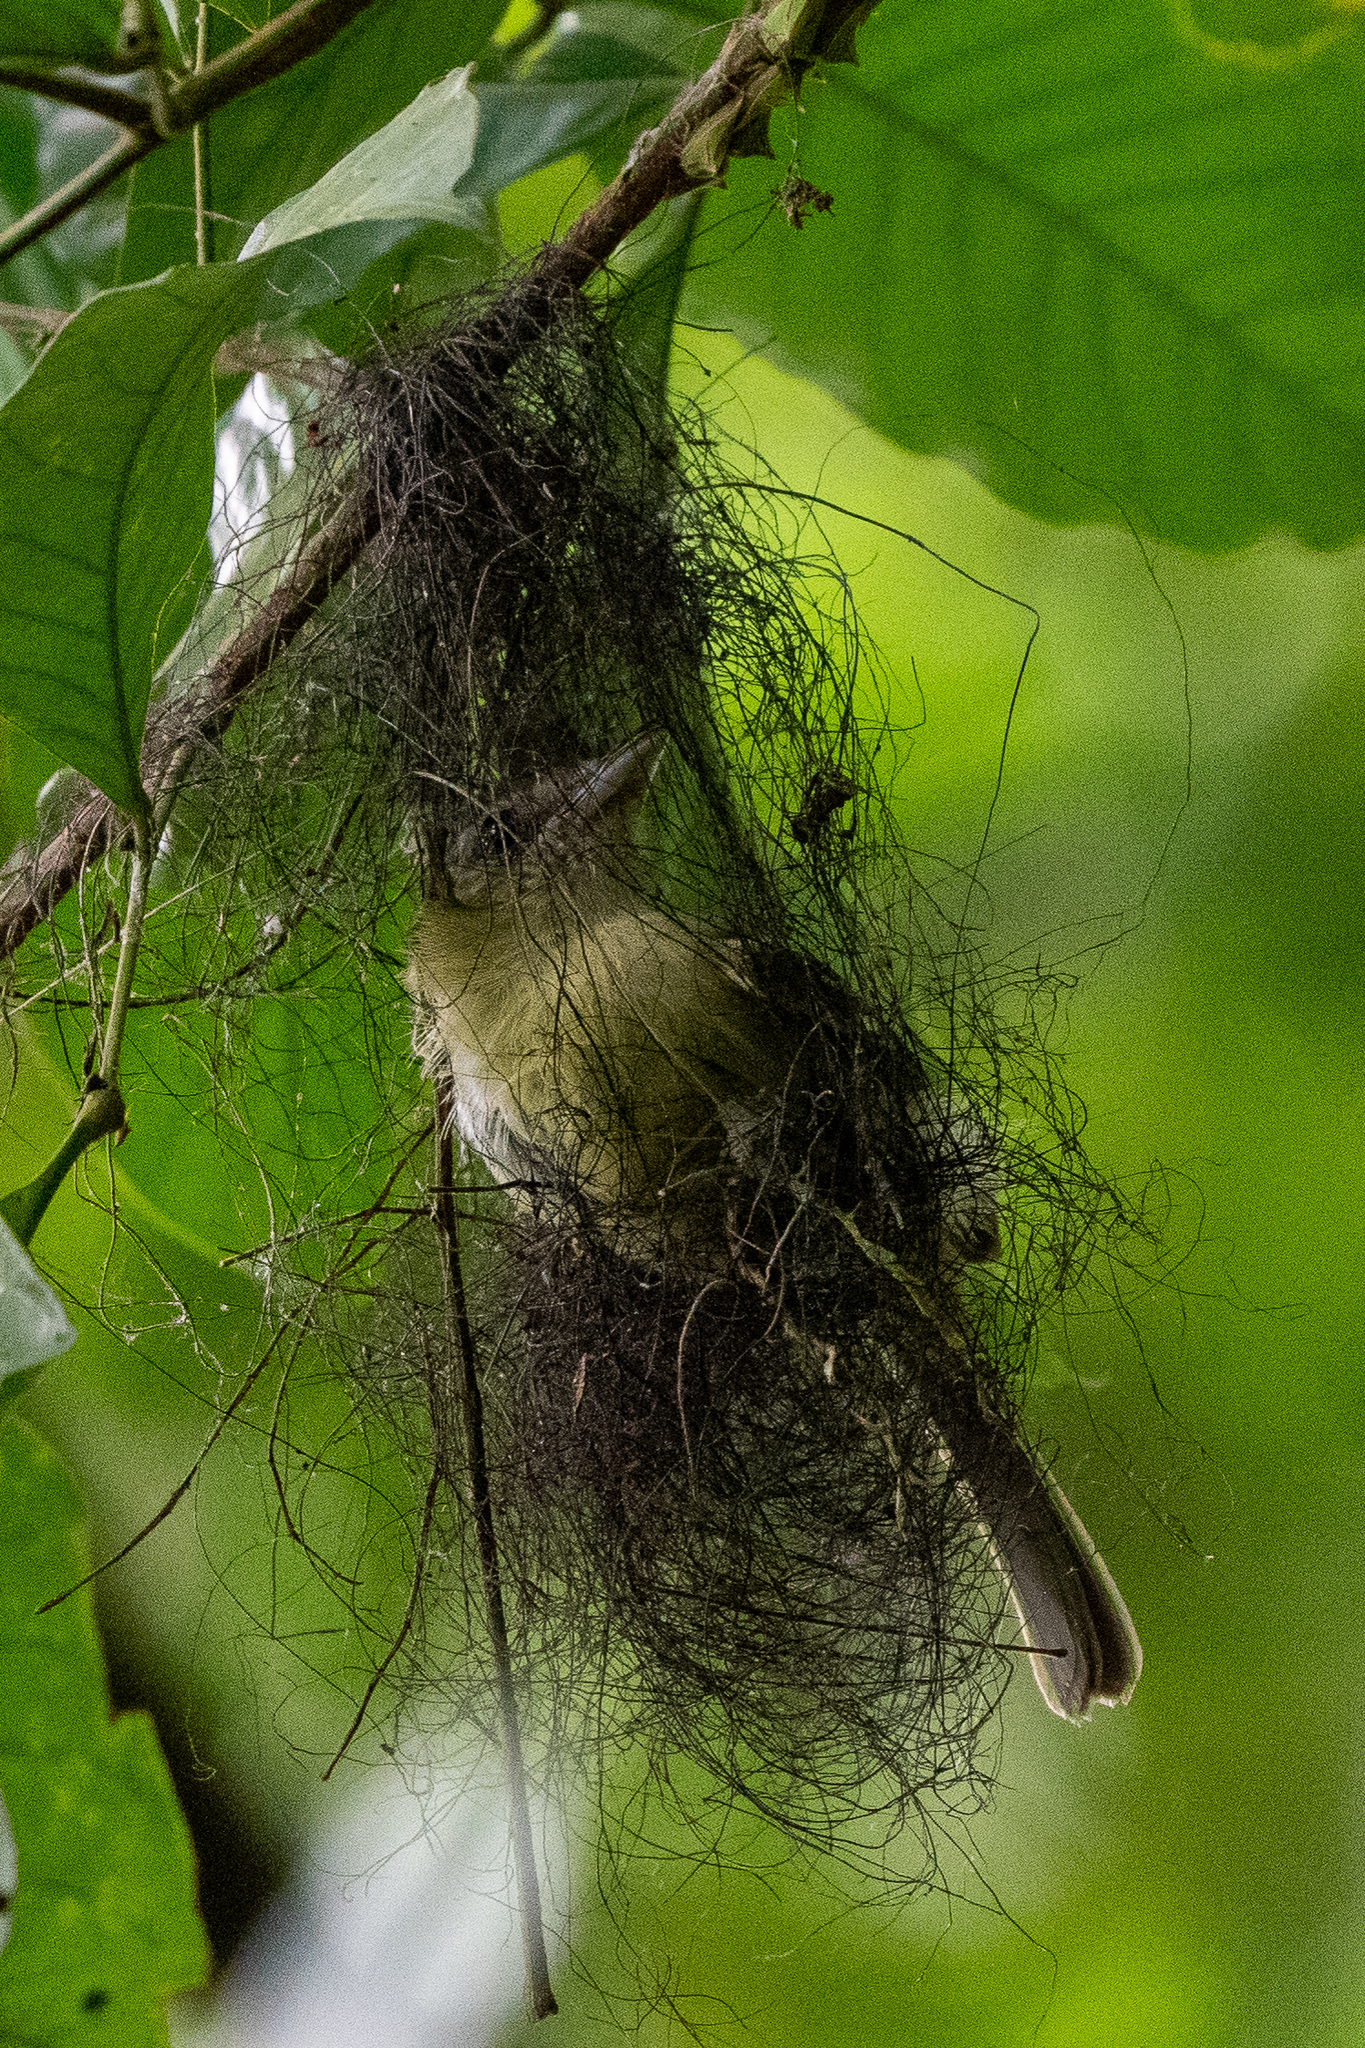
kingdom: Animalia
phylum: Chordata
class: Aves
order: Passeriformes
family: Tyrannidae
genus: Rhynchocyclus
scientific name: Rhynchocyclus olivaceus
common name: Olivaceous flatbill
